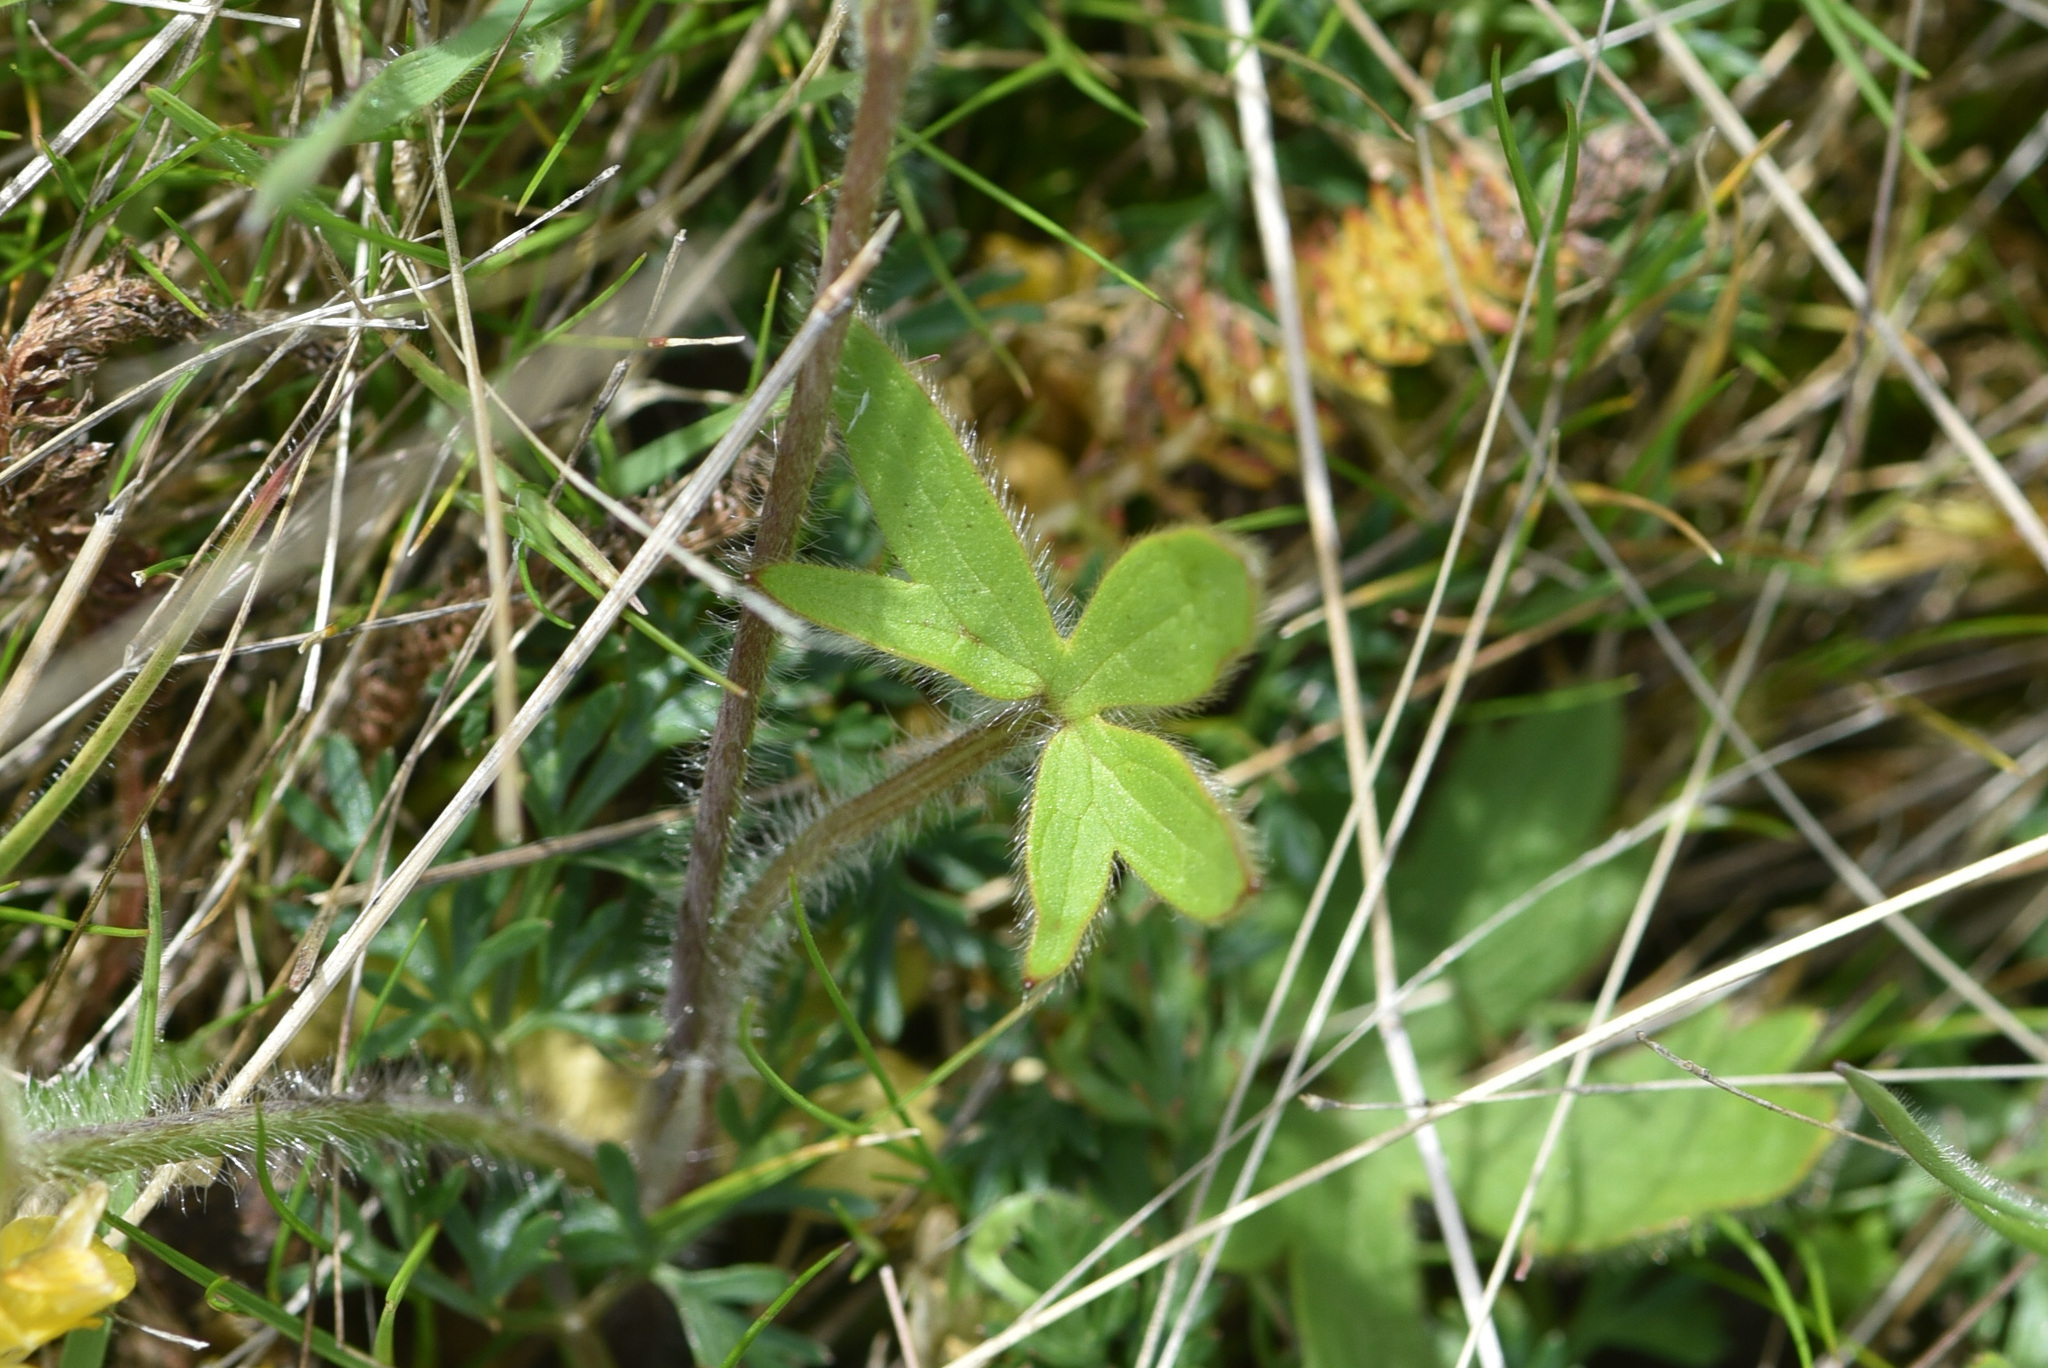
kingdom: Plantae
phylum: Tracheophyta
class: Magnoliopsida
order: Ranunculales
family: Ranunculaceae
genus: Ranunculus
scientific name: Ranunculus occidentalis
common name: Western buttercup
